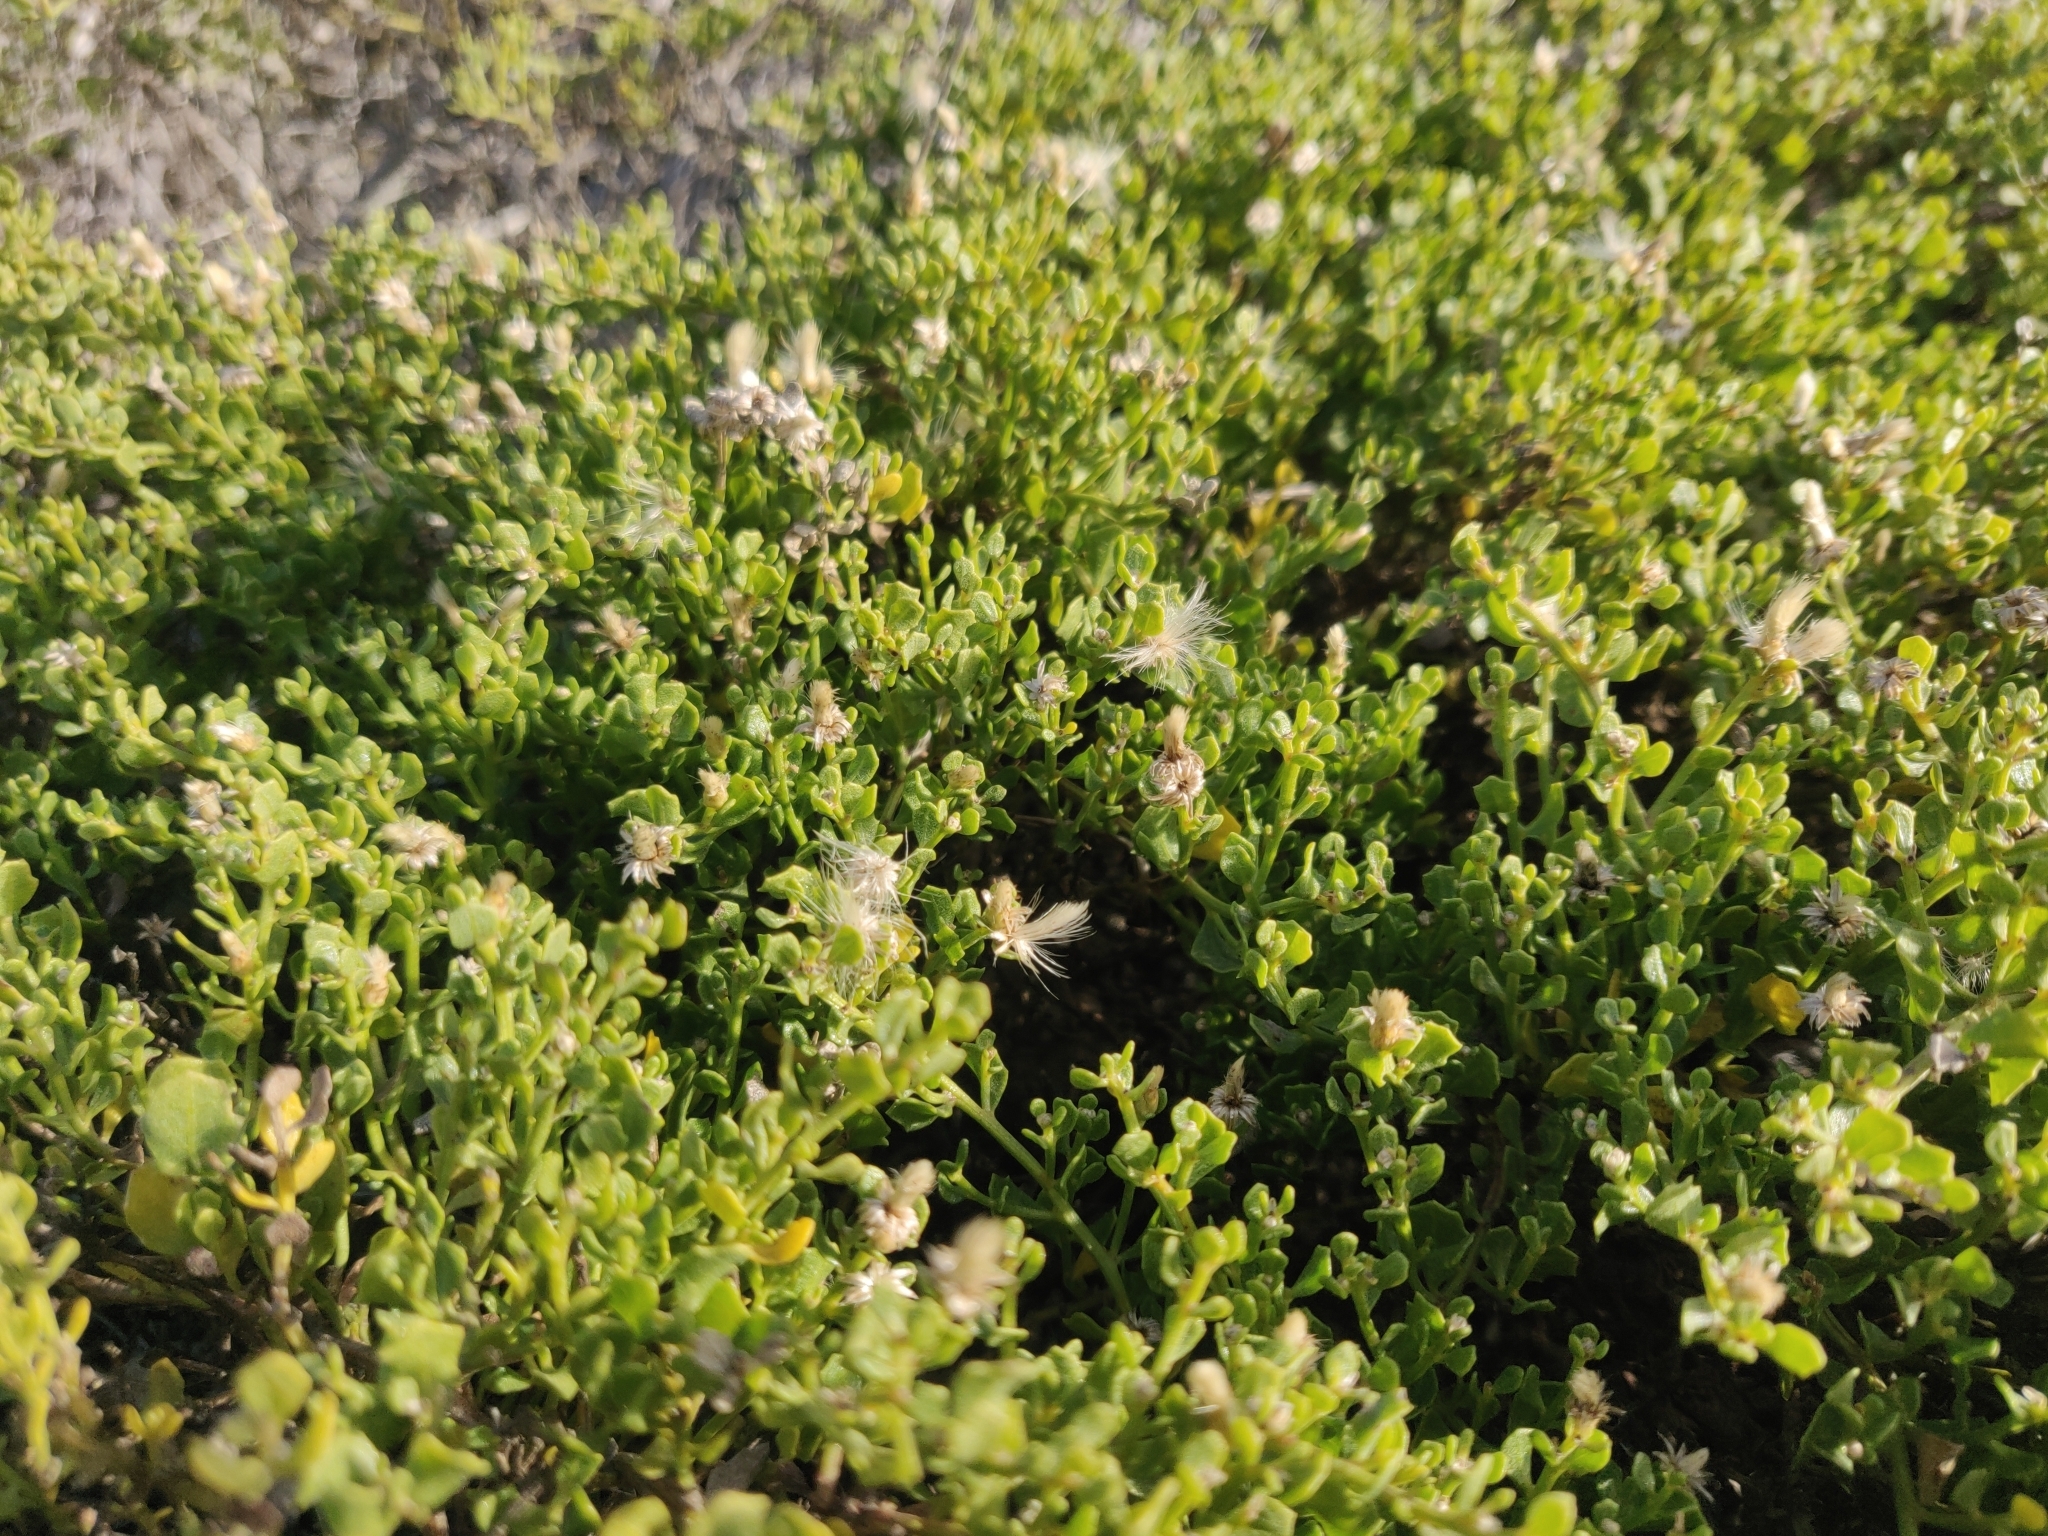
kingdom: Plantae
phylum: Tracheophyta
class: Magnoliopsida
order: Asterales
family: Asteraceae
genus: Baccharis
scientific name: Baccharis pilularis
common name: Coyotebrush
